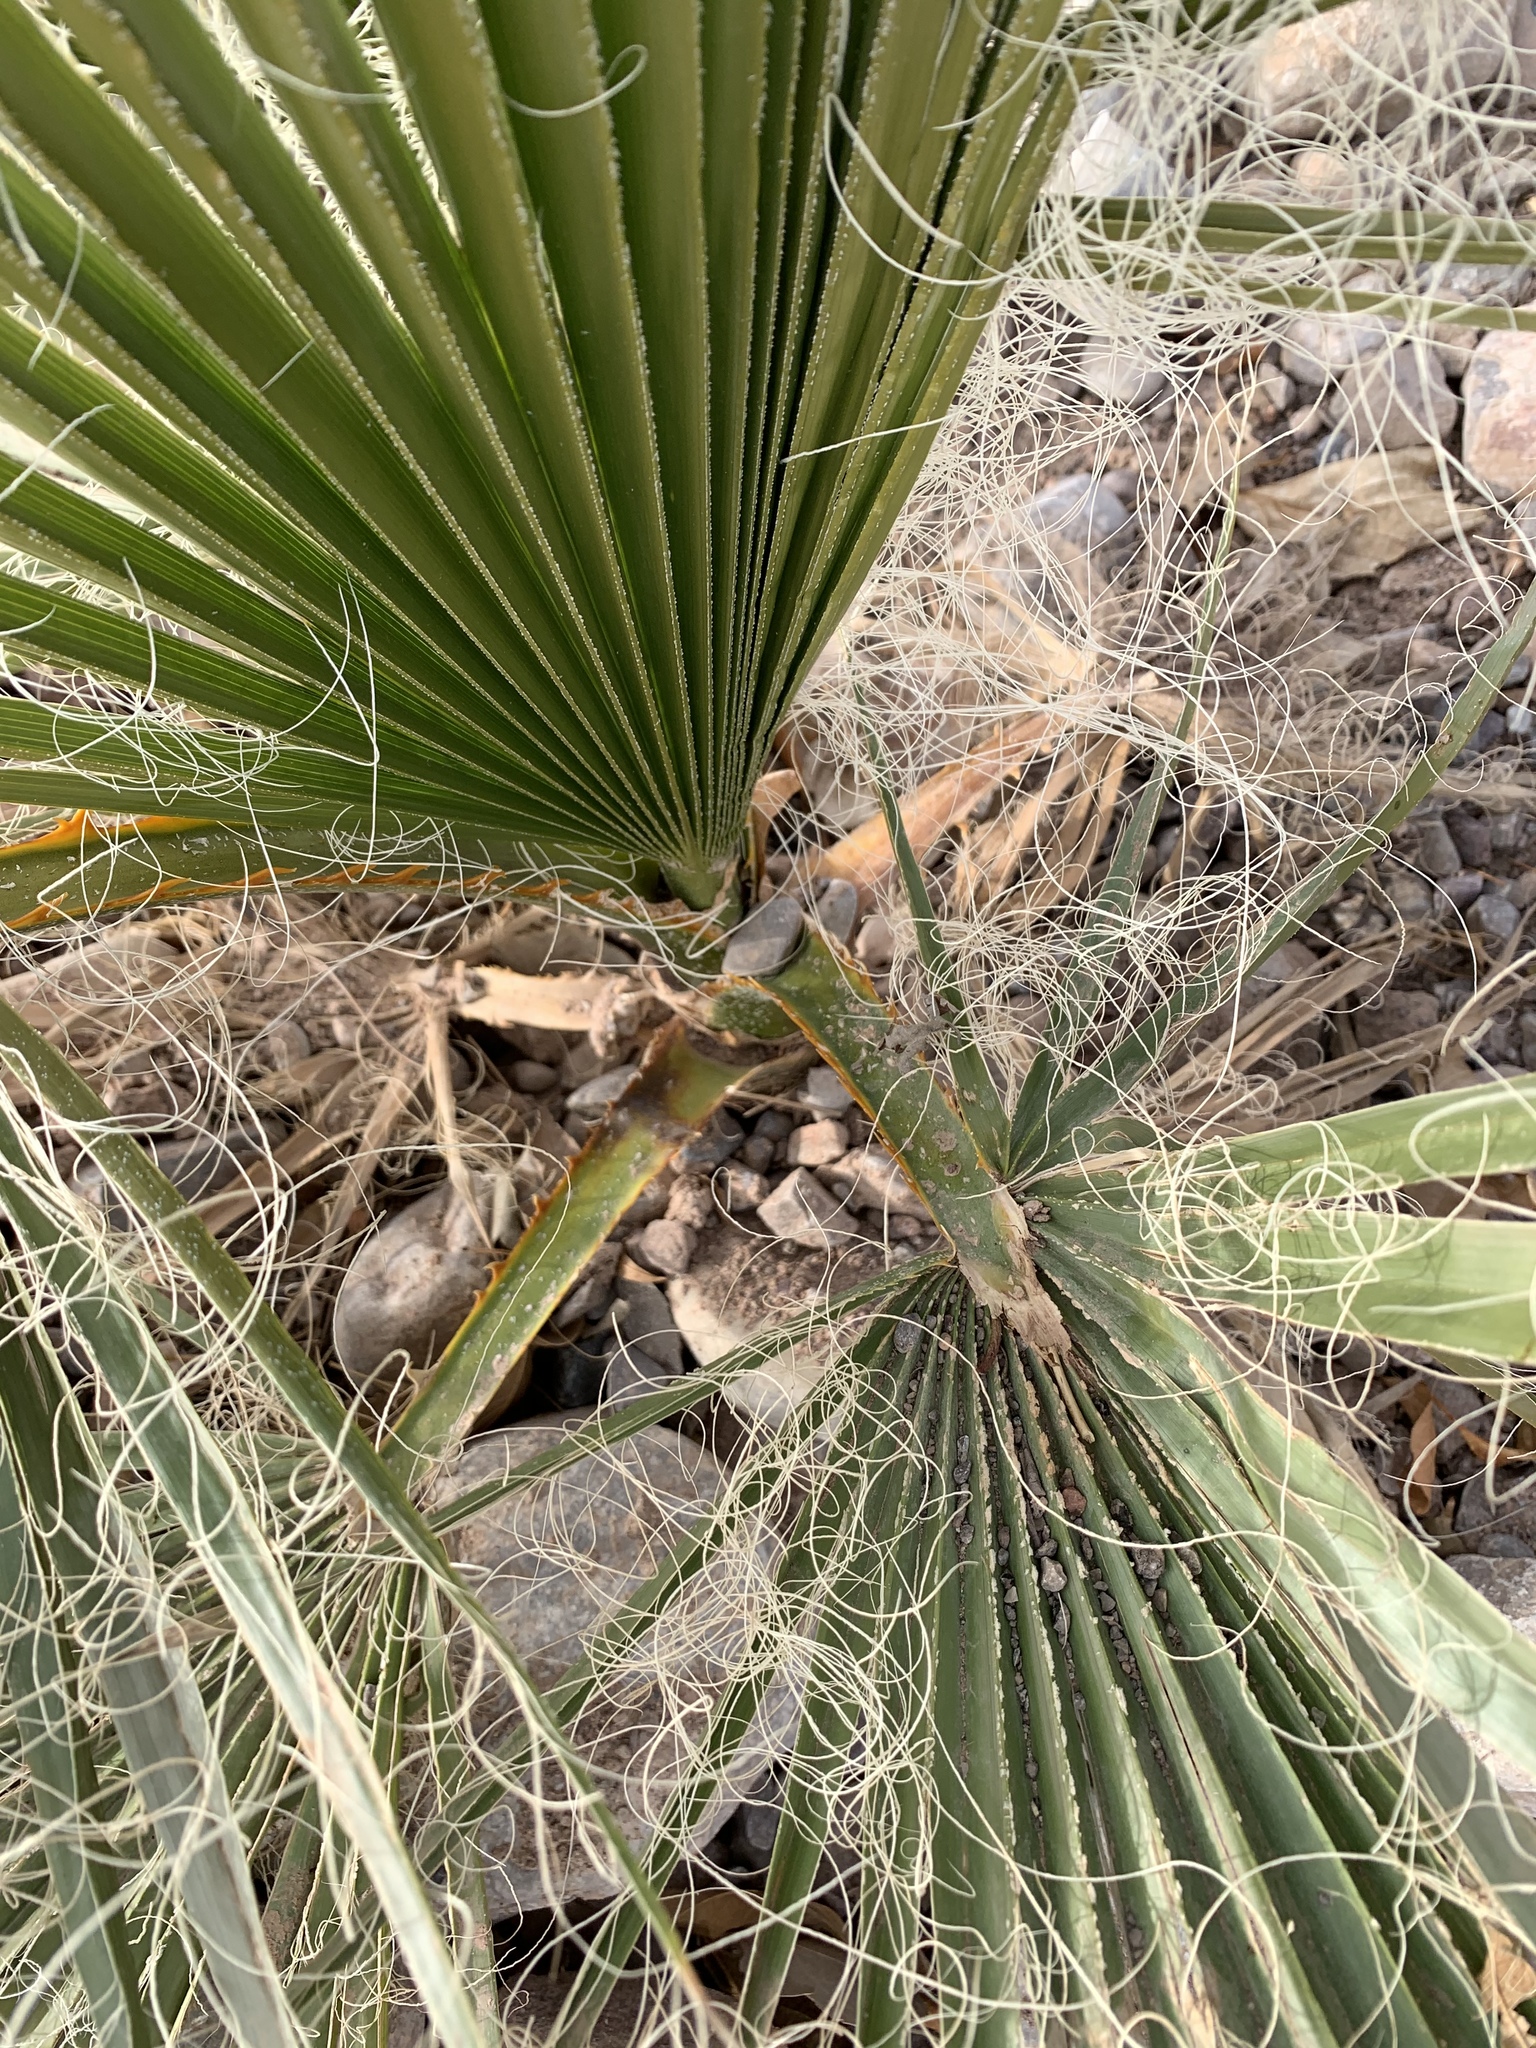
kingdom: Plantae
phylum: Tracheophyta
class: Liliopsida
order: Arecales
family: Arecaceae
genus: Washingtonia
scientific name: Washingtonia filifera
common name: California fan palm
